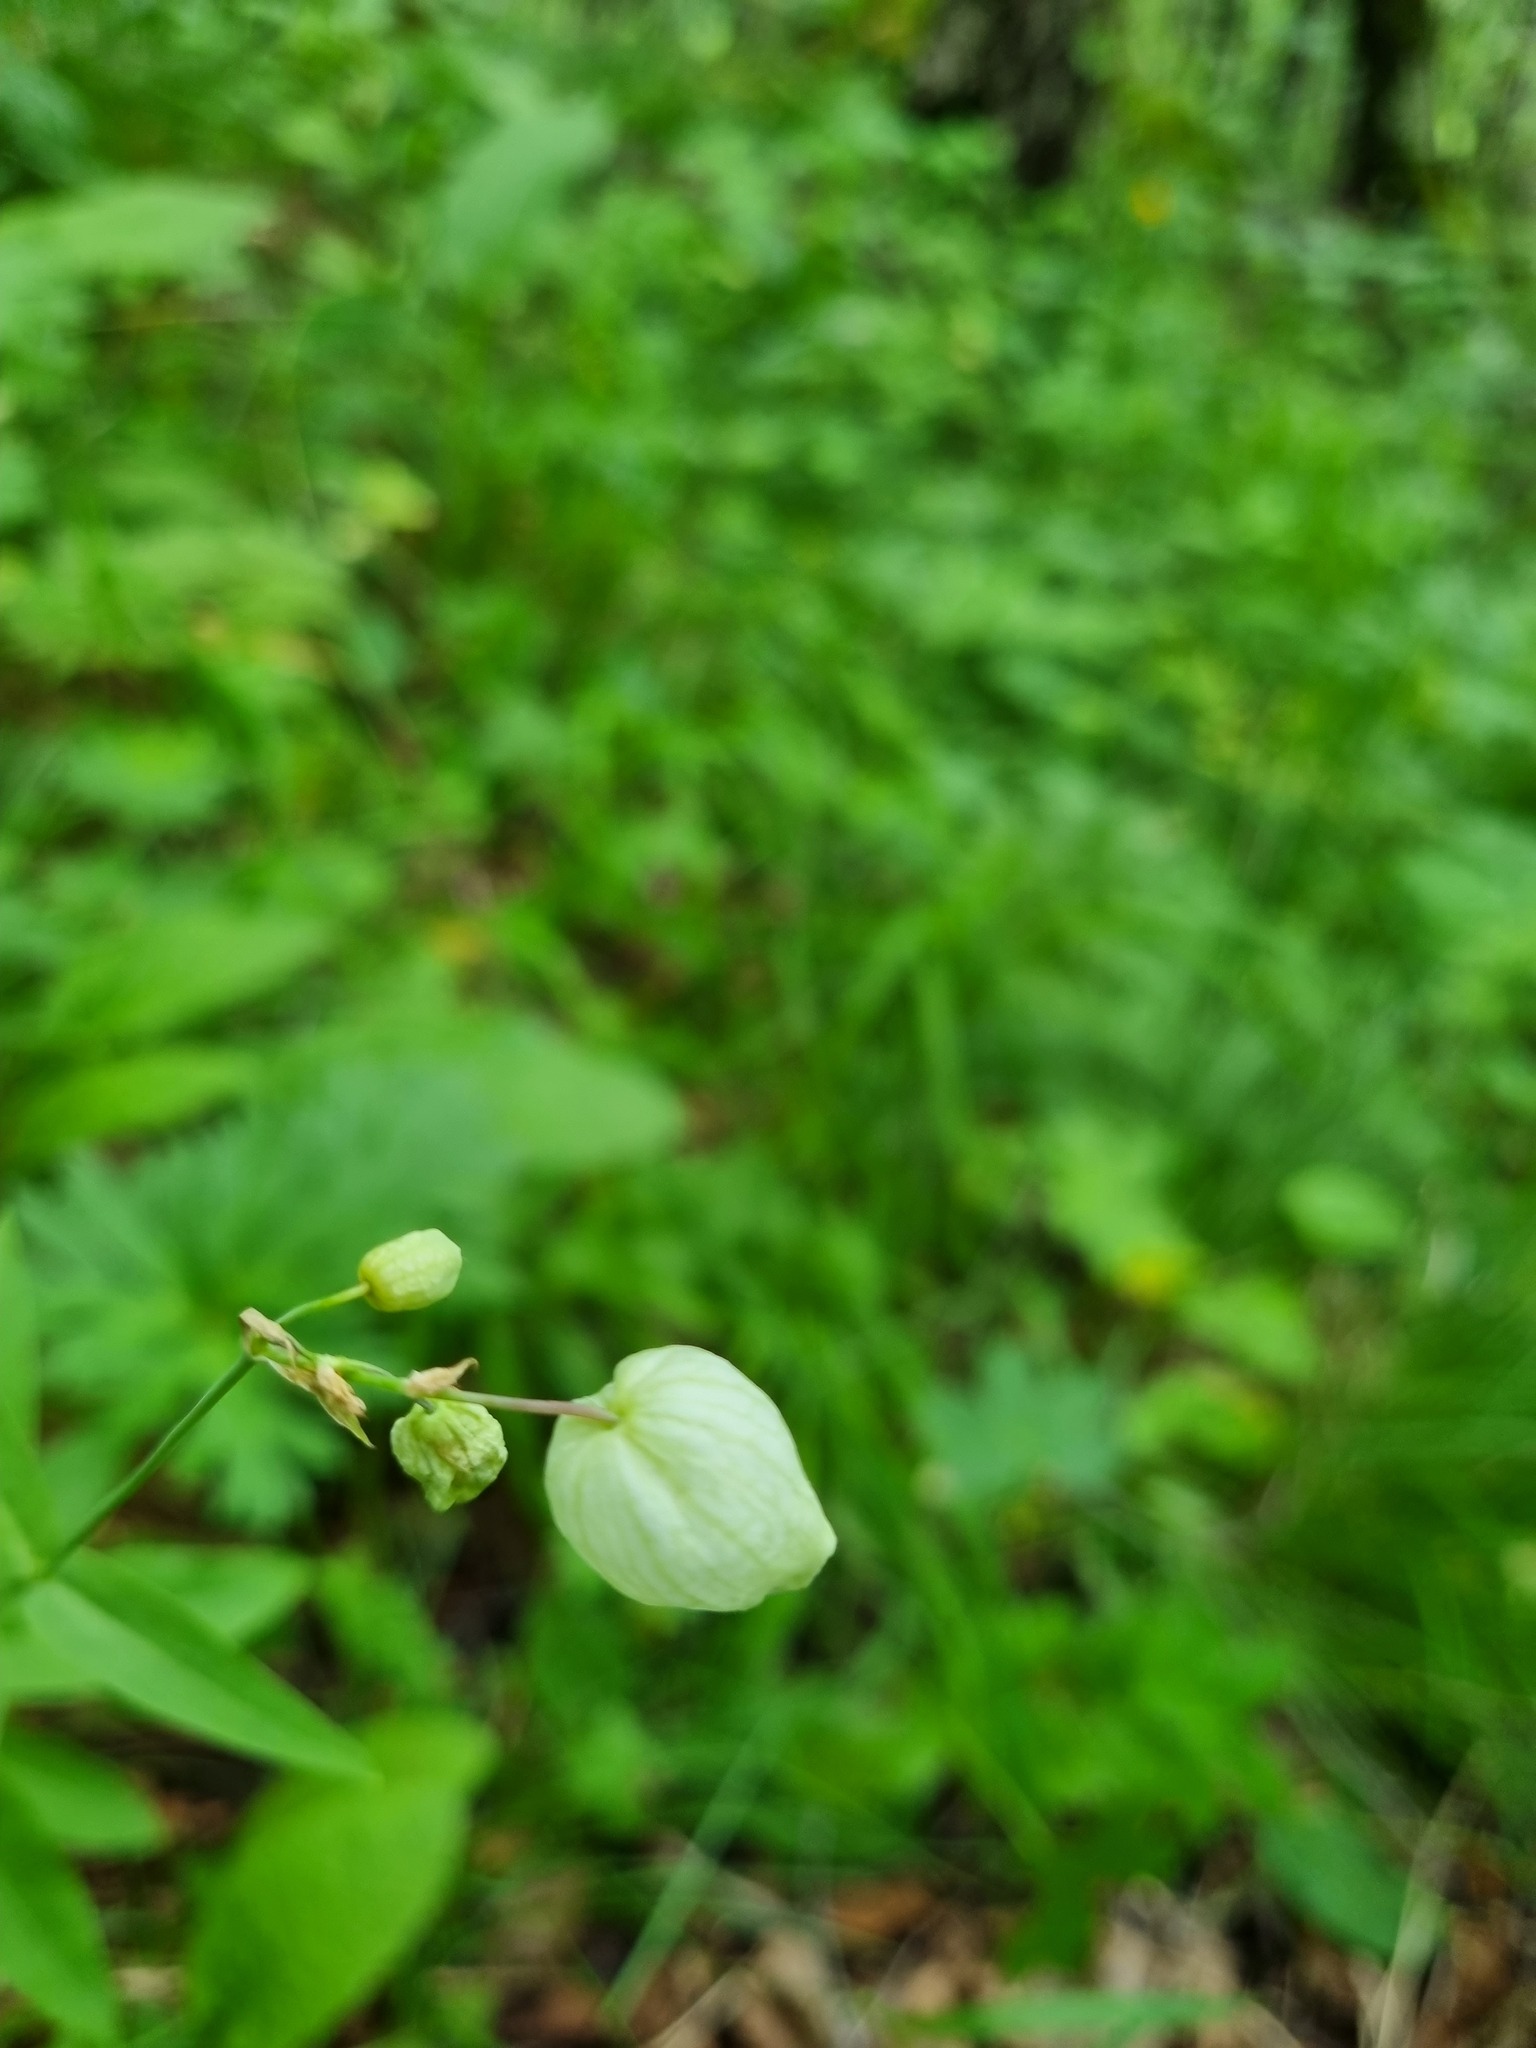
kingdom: Plantae
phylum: Tracheophyta
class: Magnoliopsida
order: Caryophyllales
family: Caryophyllaceae
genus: Silene
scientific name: Silene vulgaris
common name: Bladder campion
